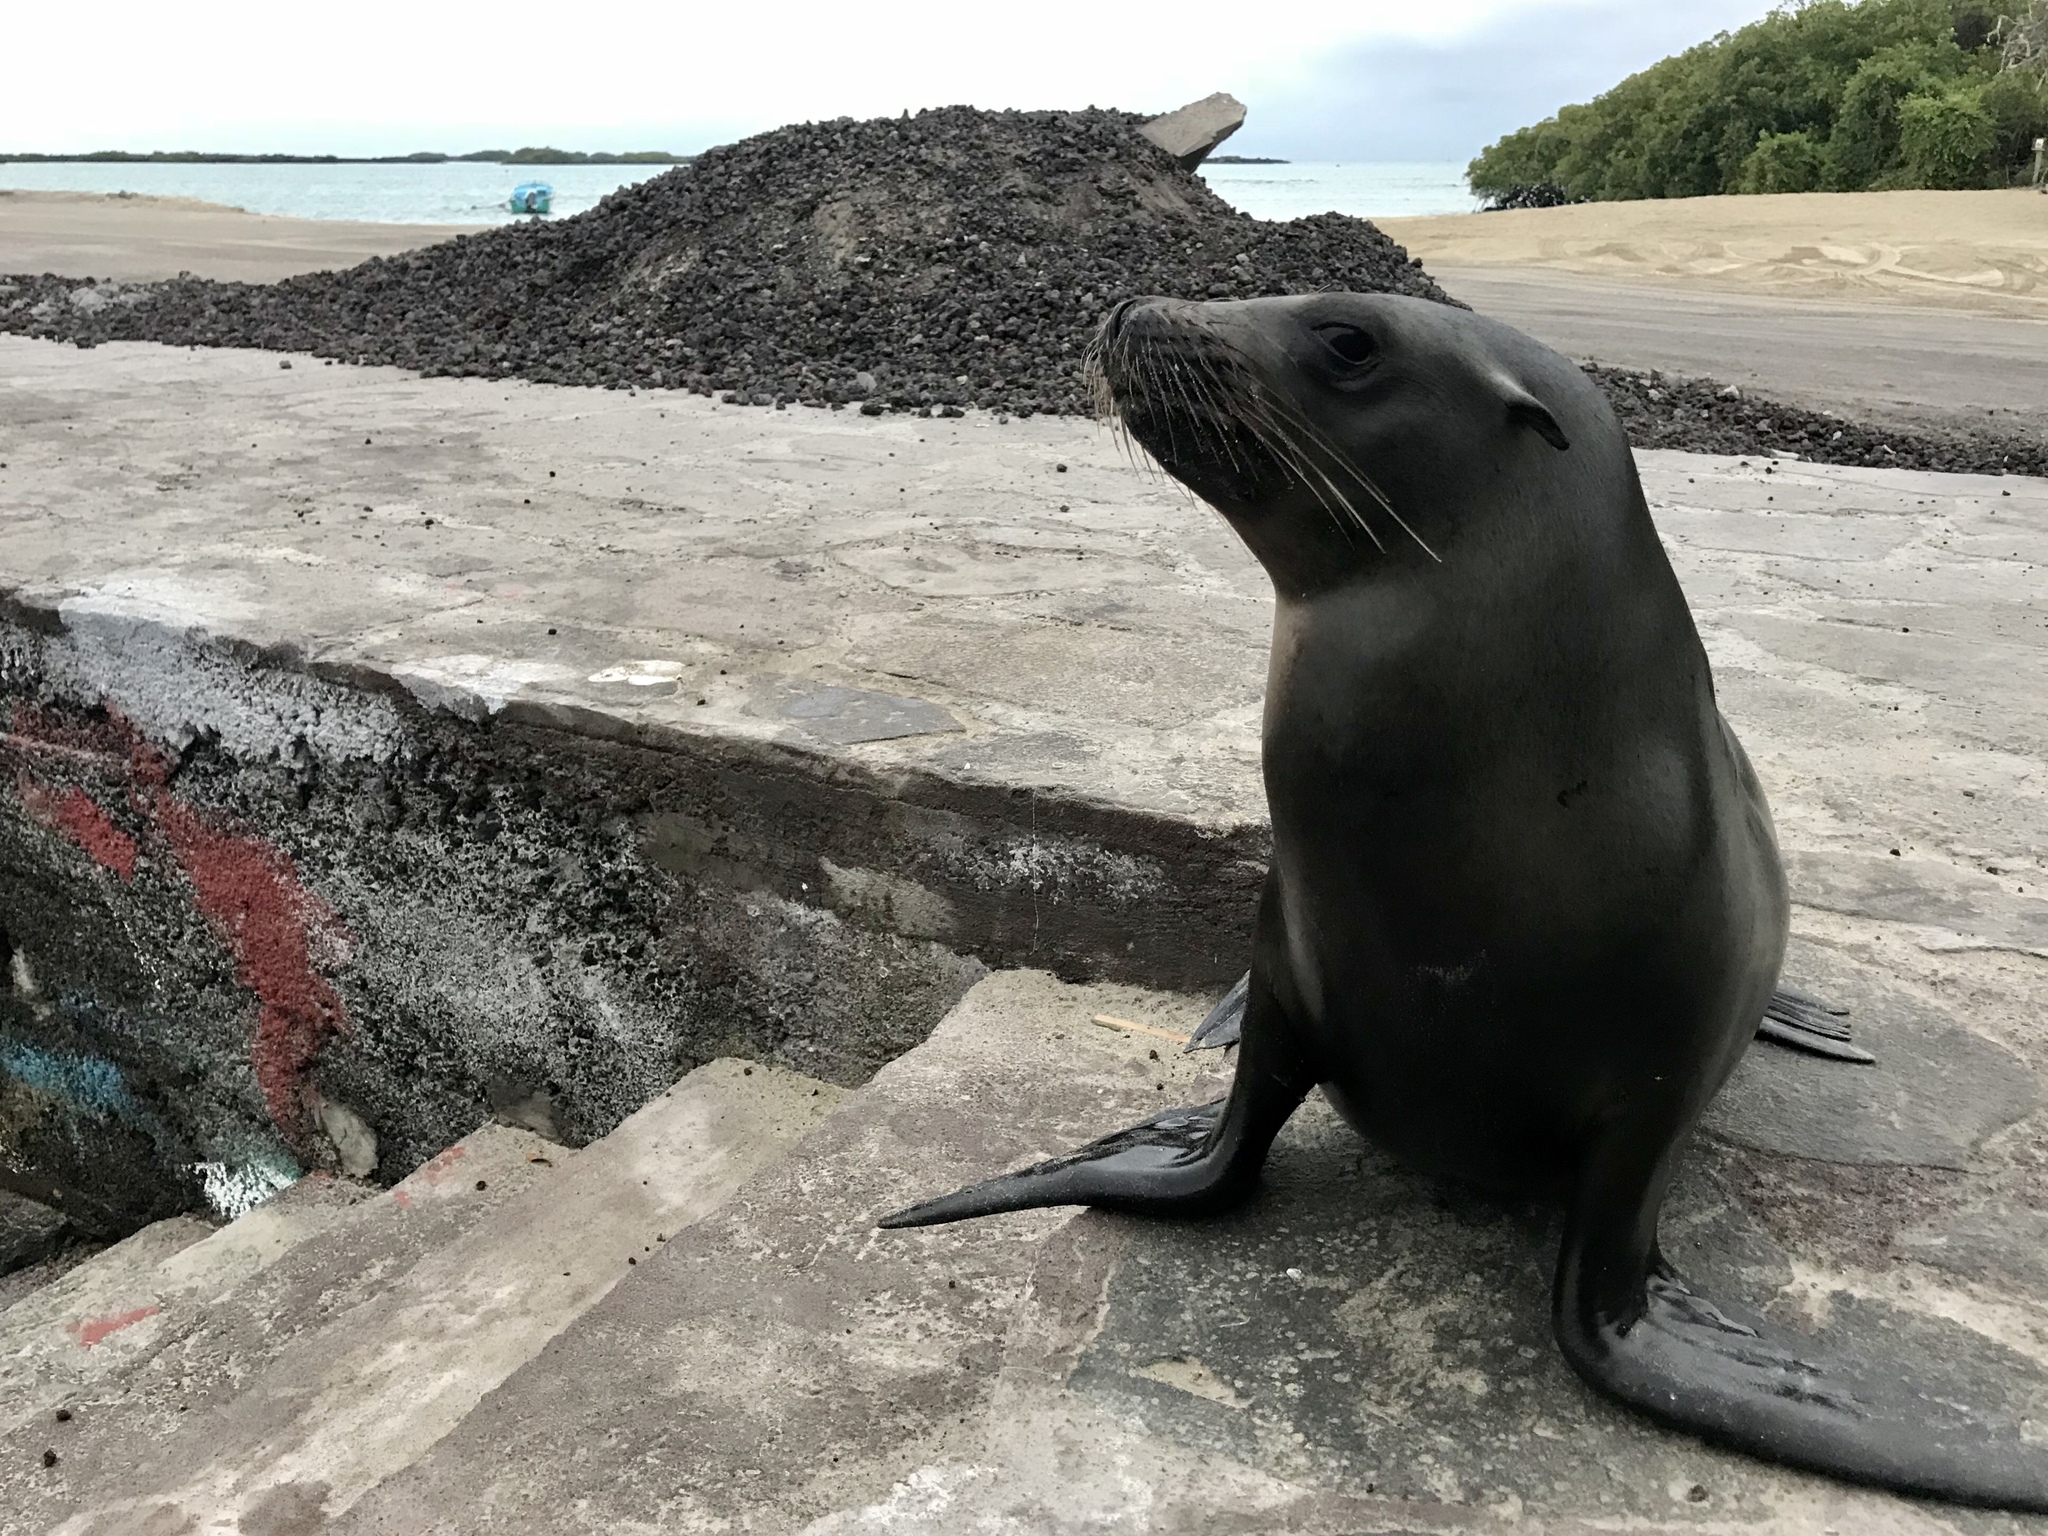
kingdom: Animalia
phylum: Chordata
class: Mammalia
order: Carnivora
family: Otariidae
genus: Zalophus
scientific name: Zalophus wollebaeki
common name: Galapagos sea lion
